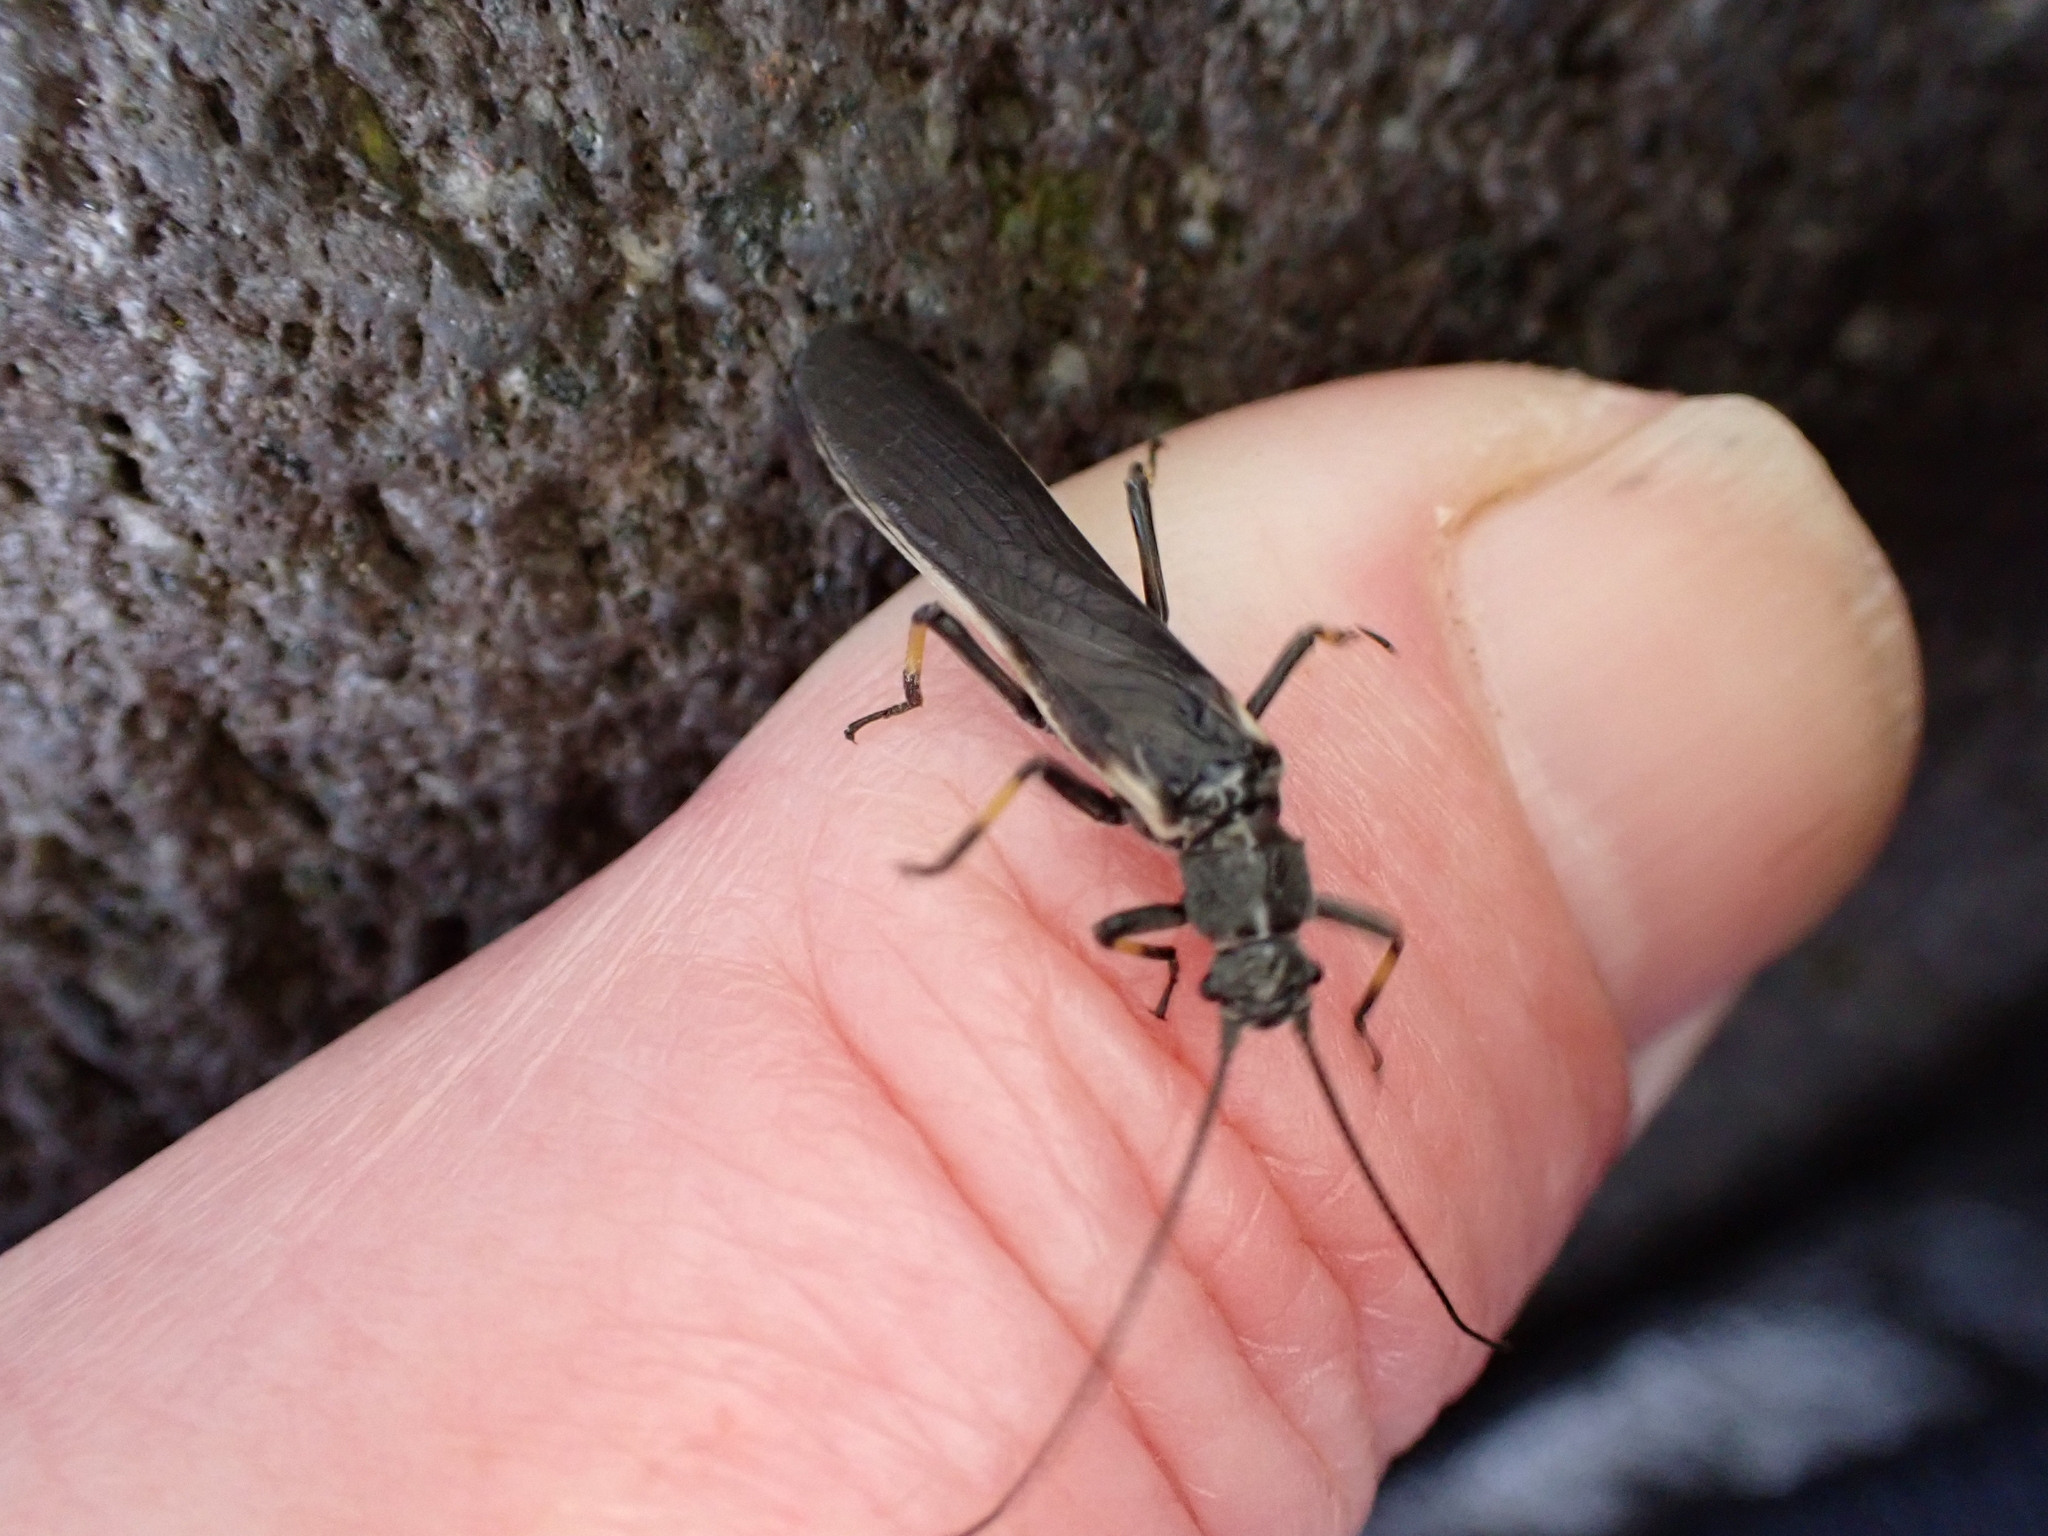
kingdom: Animalia
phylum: Arthropoda
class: Insecta
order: Plecoptera
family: Austroperlidae
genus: Austroperla
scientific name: Austroperla cyrene
